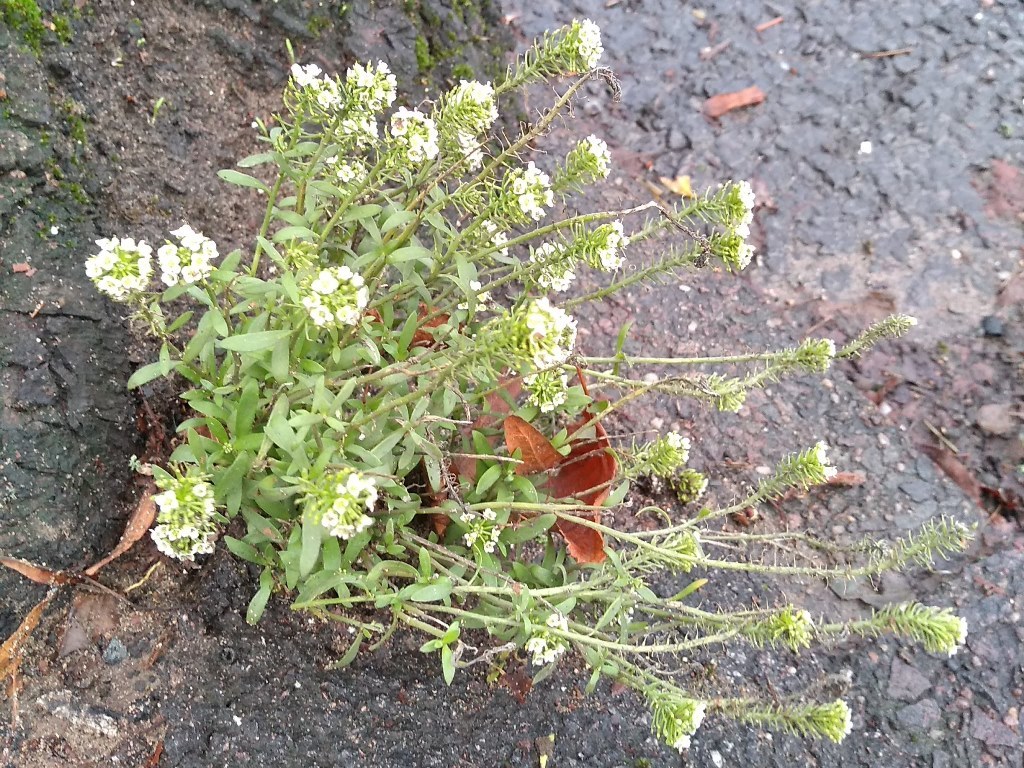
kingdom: Plantae
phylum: Tracheophyta
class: Magnoliopsida
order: Brassicales
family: Brassicaceae
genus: Lobularia
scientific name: Lobularia maritima
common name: Sweet alison
